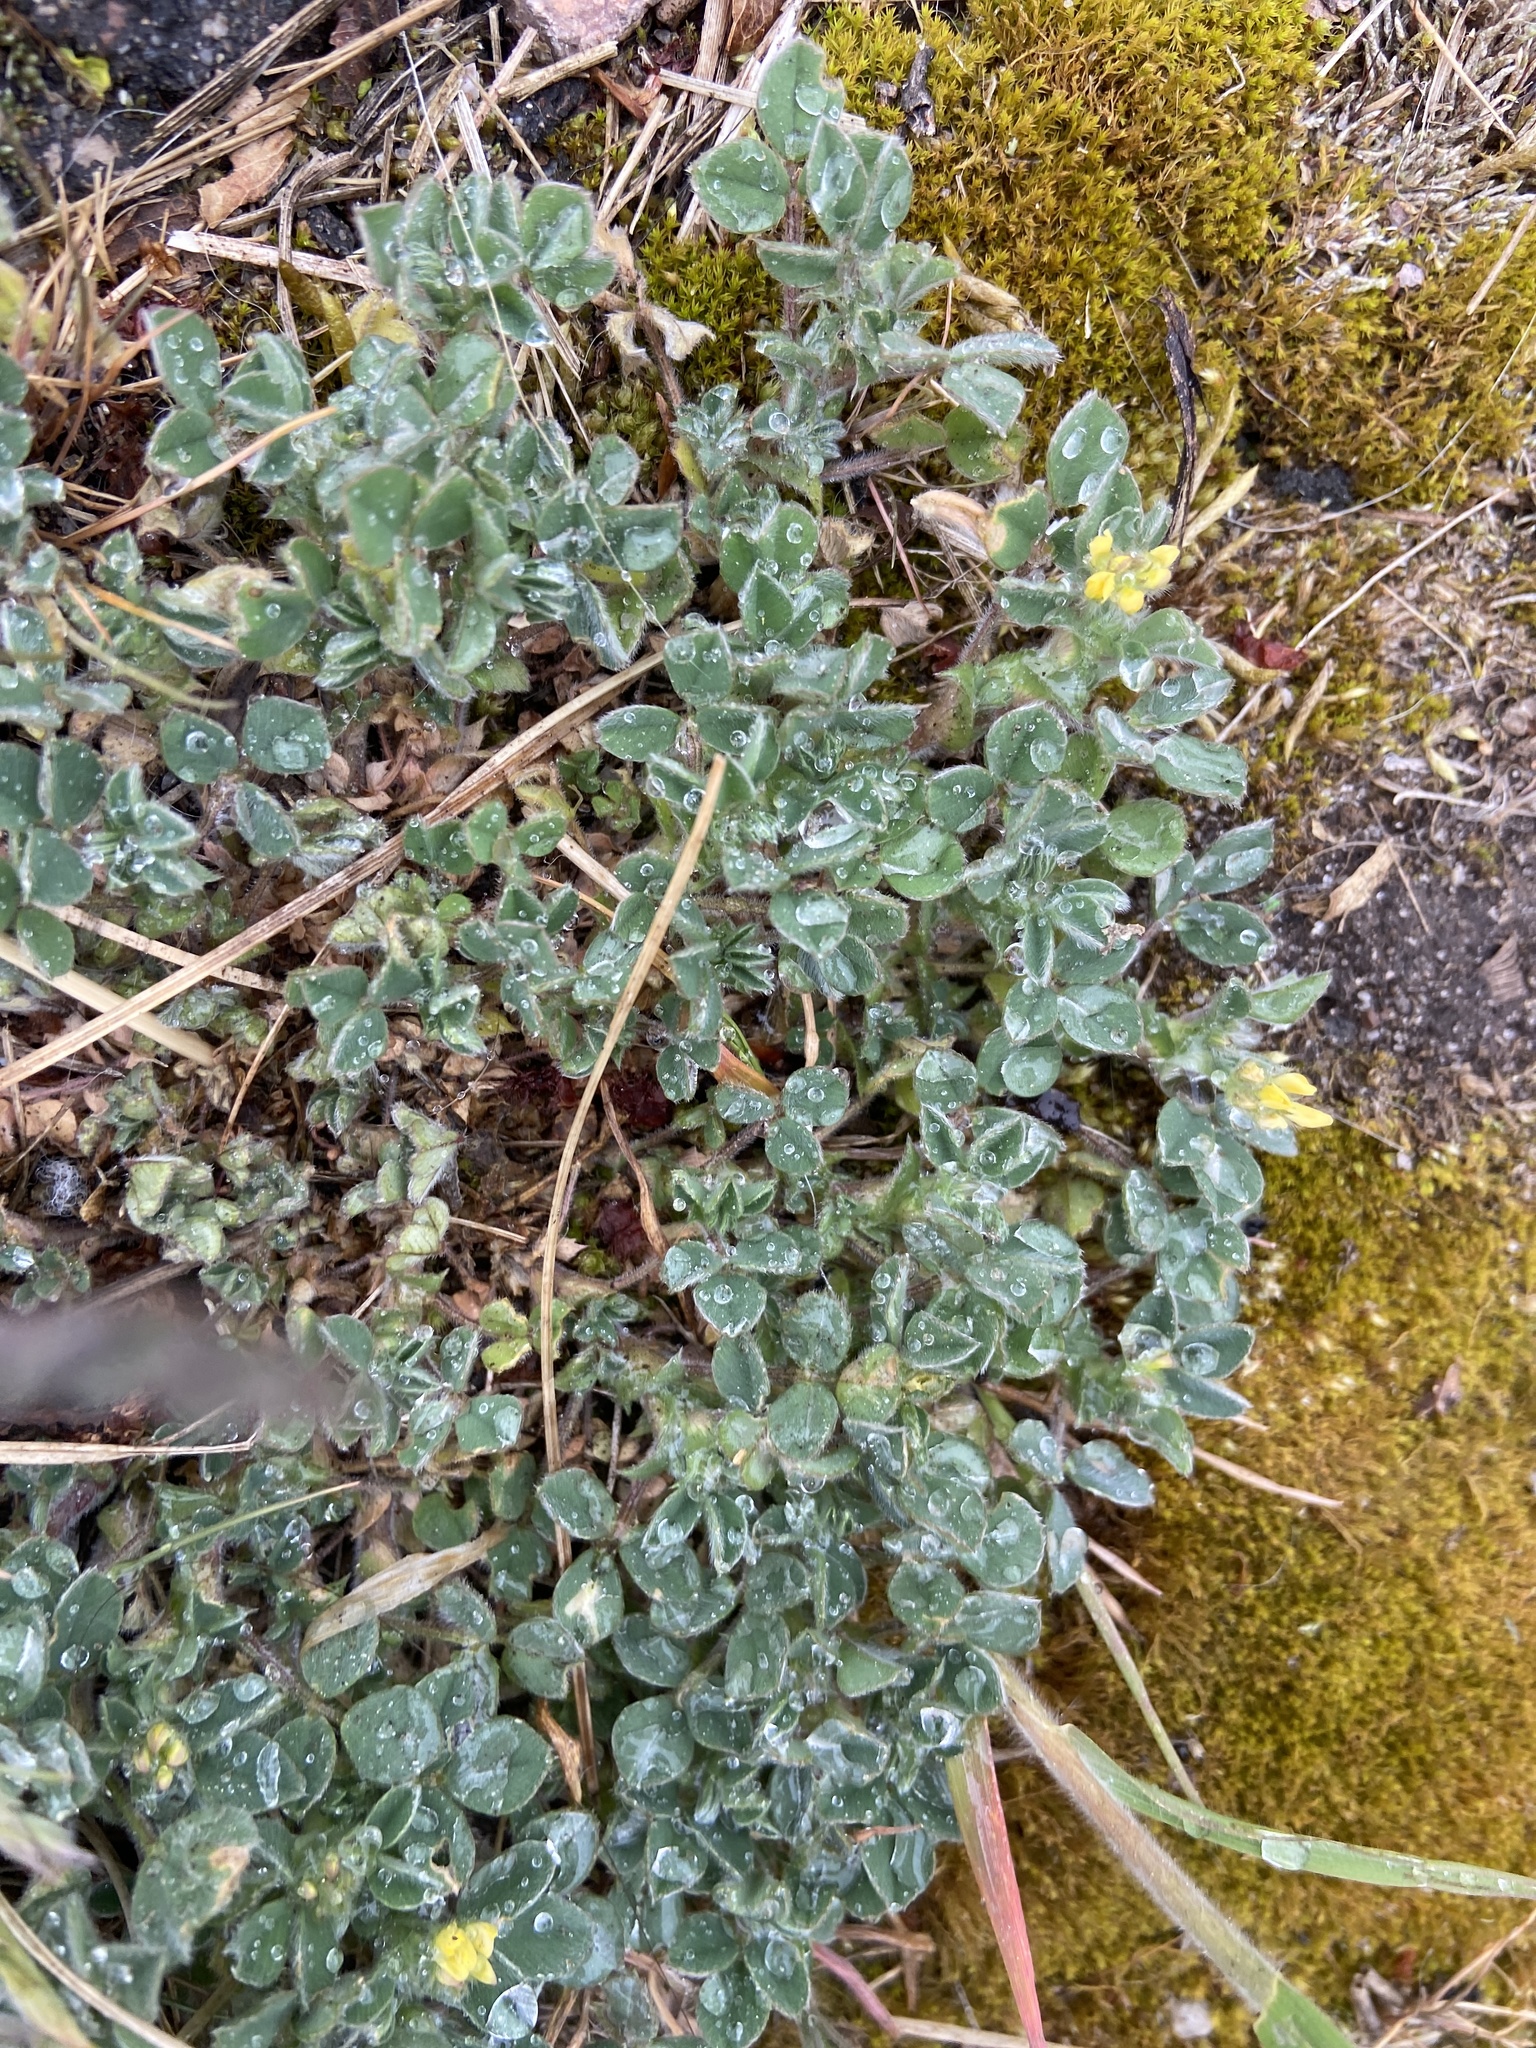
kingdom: Plantae
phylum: Tracheophyta
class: Magnoliopsida
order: Fabales
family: Fabaceae
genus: Medicago
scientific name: Medicago minima
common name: Little bur-clover
